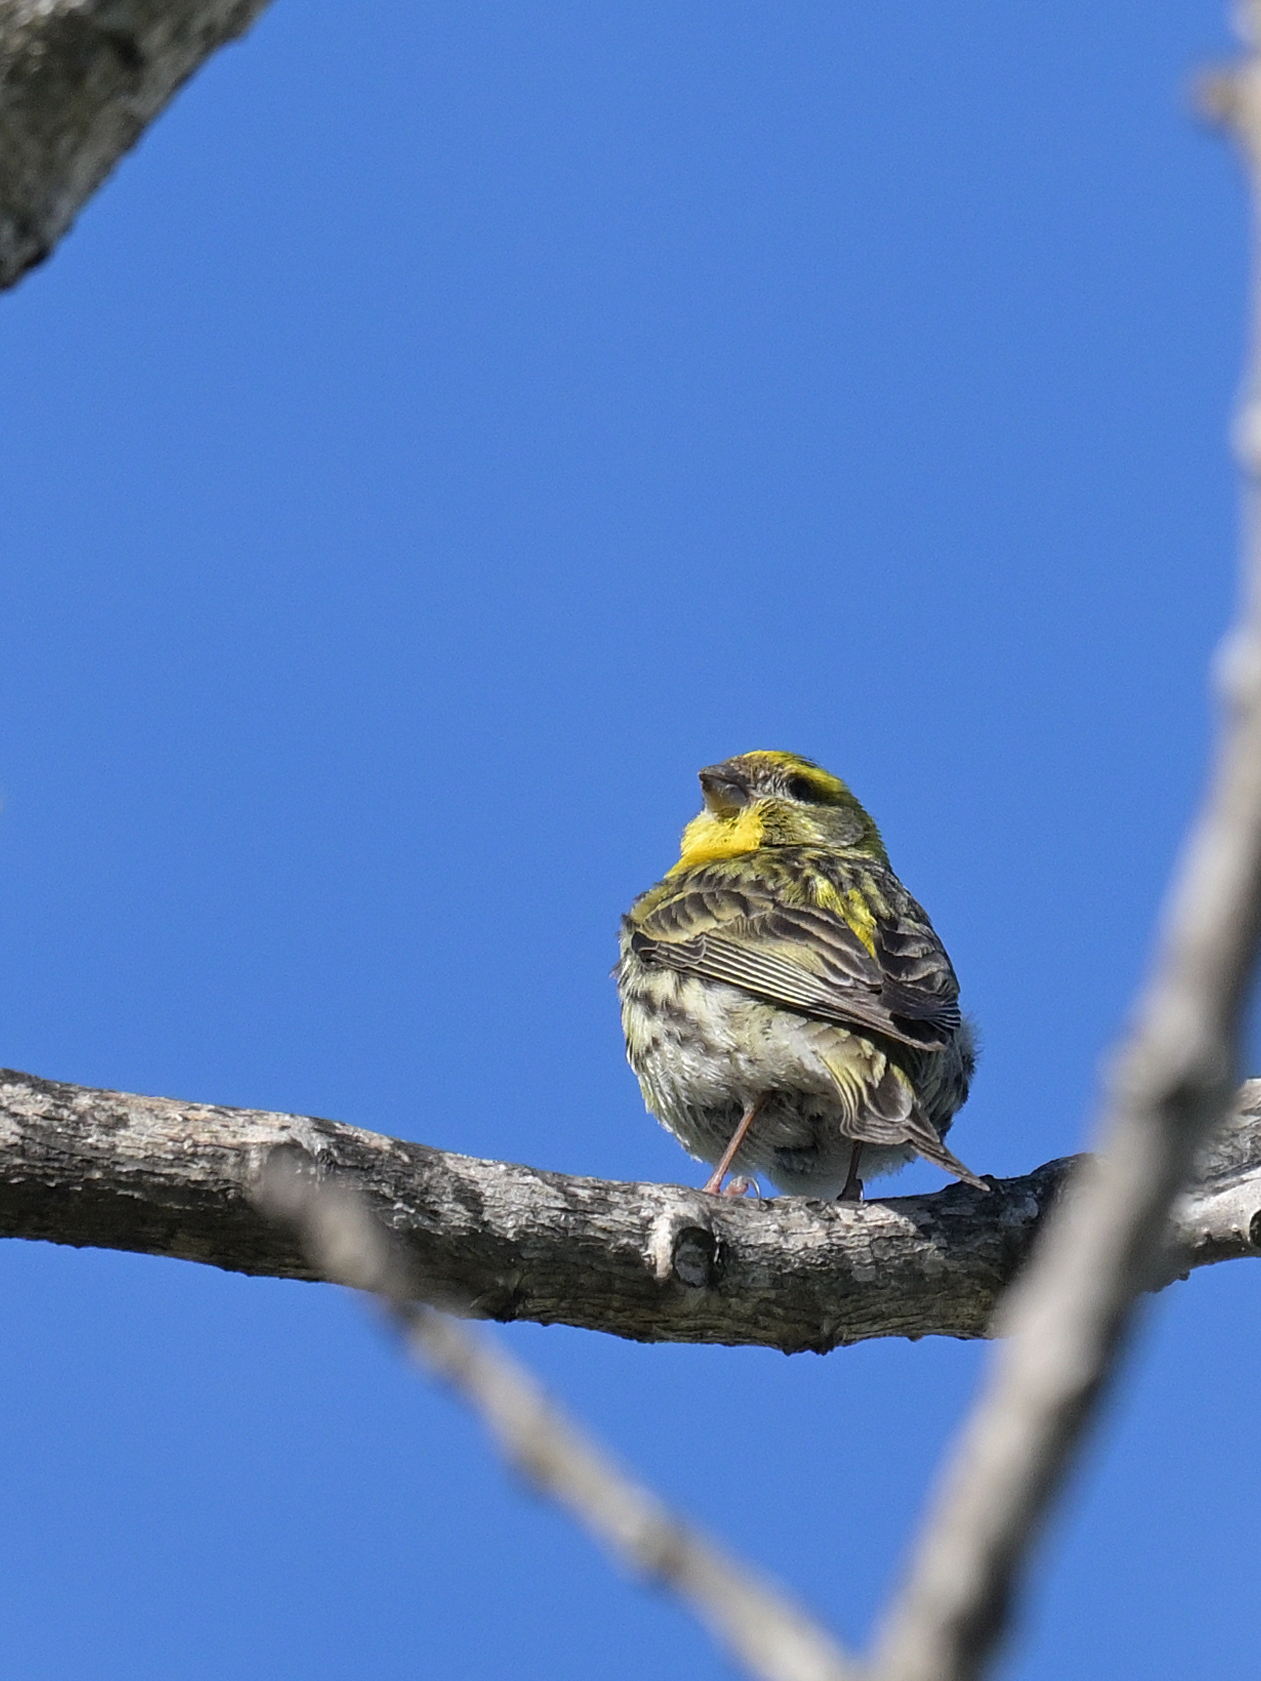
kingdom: Animalia
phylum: Chordata
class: Aves
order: Passeriformes
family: Fringillidae
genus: Serinus
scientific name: Serinus serinus
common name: European serin
